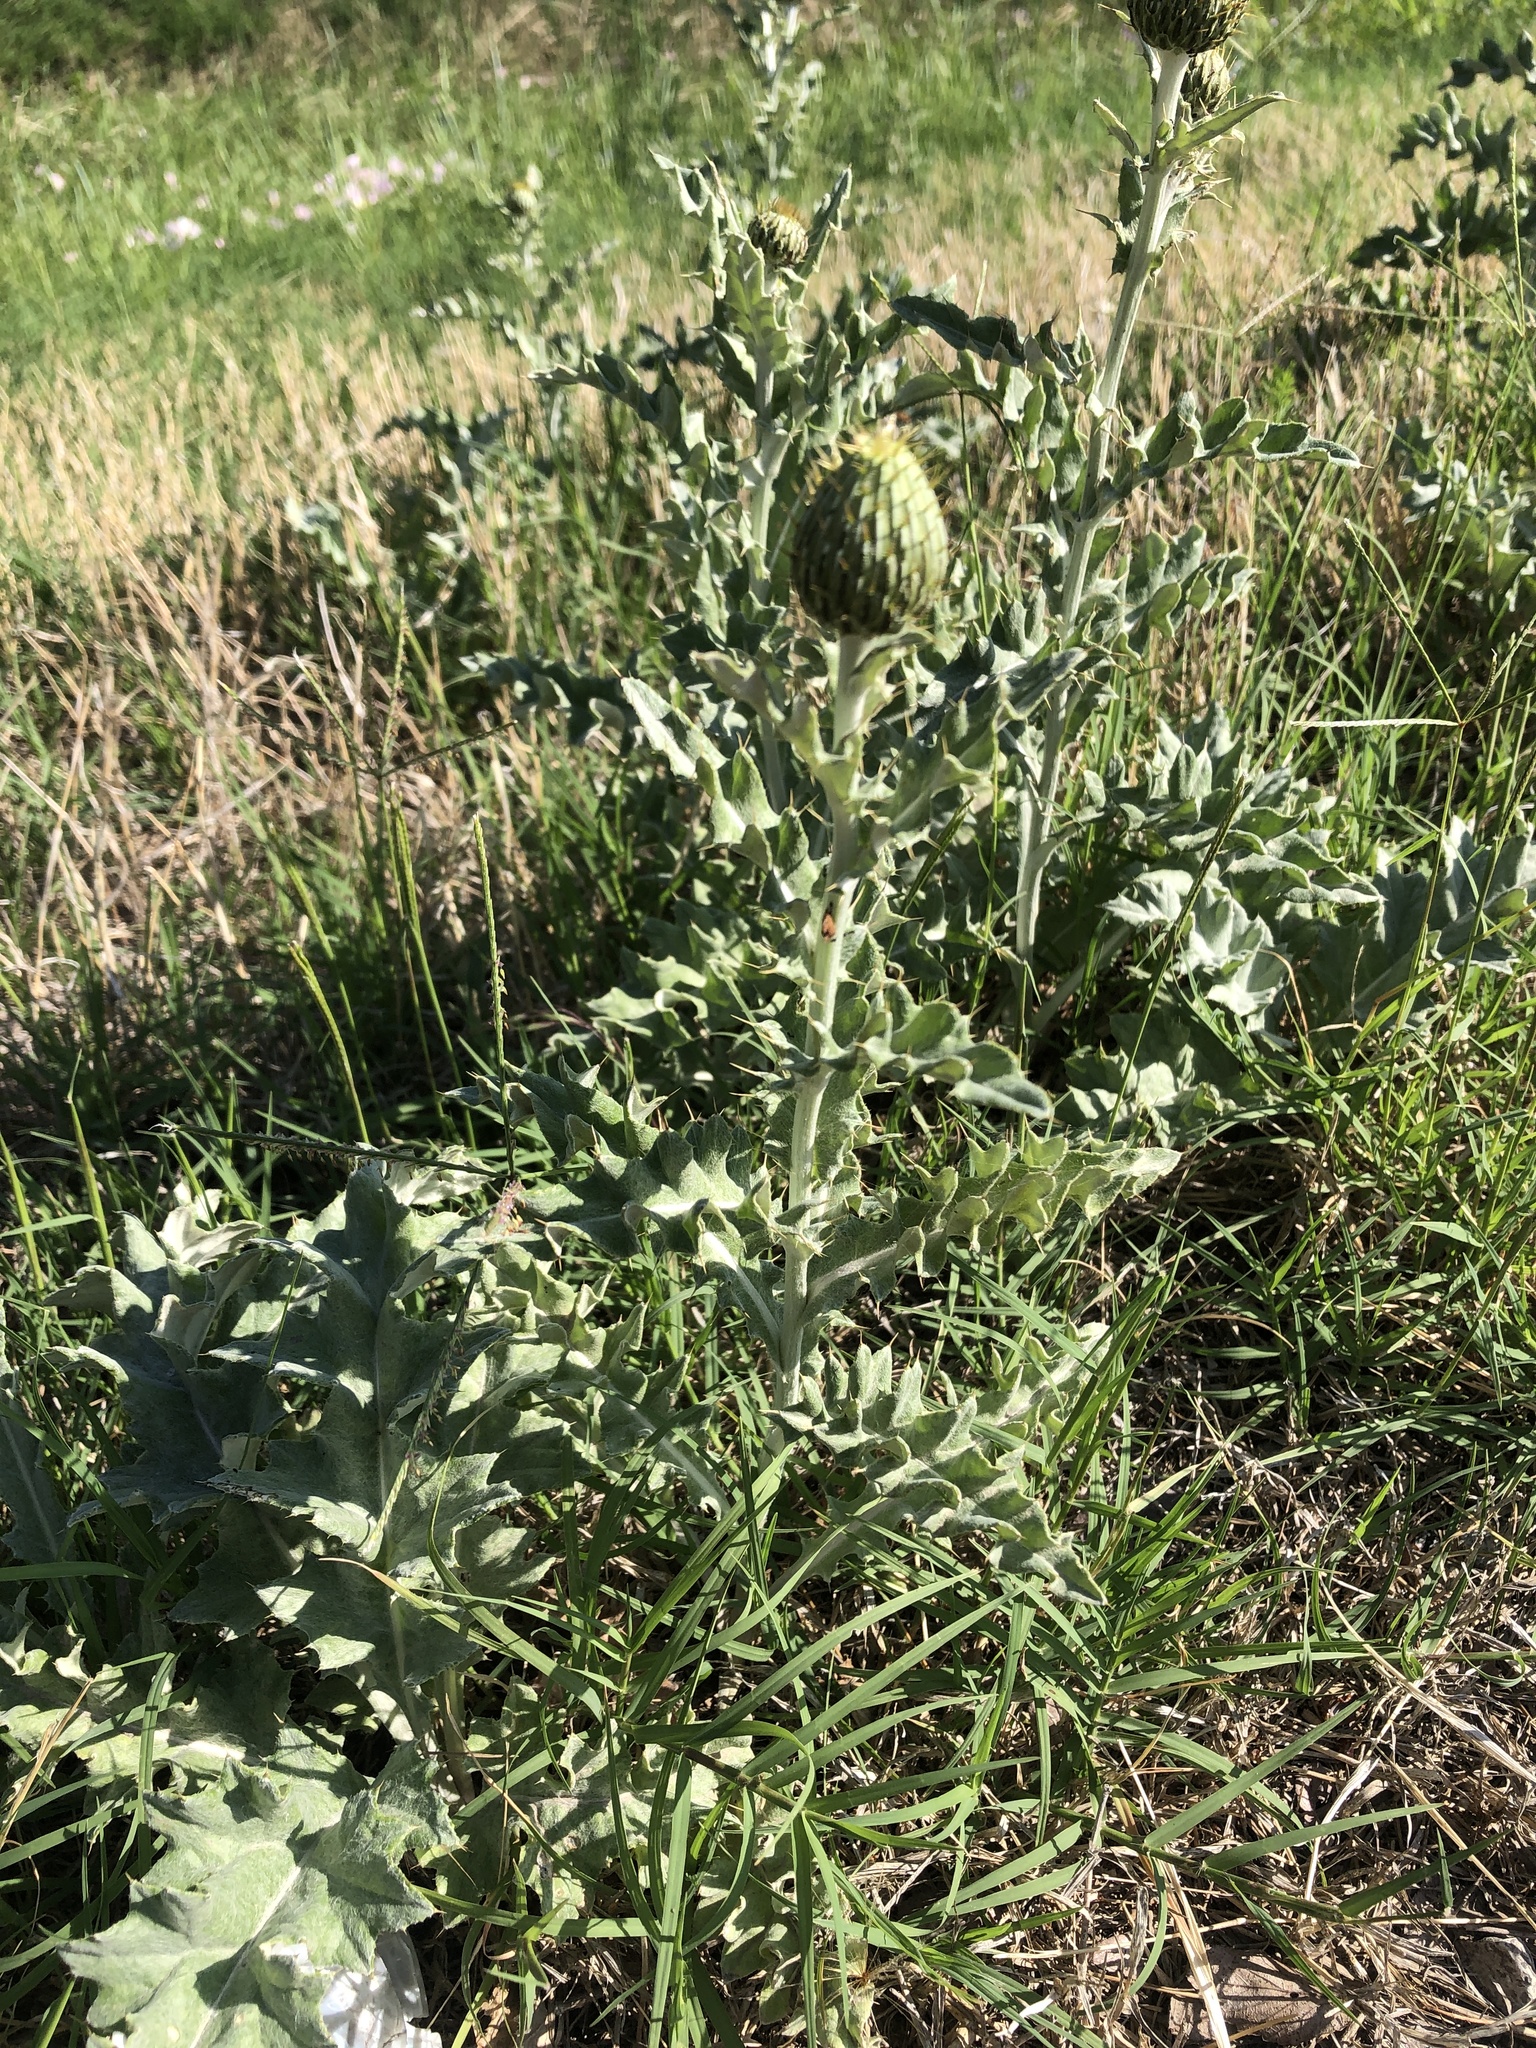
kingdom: Plantae
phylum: Tracheophyta
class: Magnoliopsida
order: Asterales
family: Asteraceae
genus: Cirsium
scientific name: Cirsium undulatum
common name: Pasture thistle
